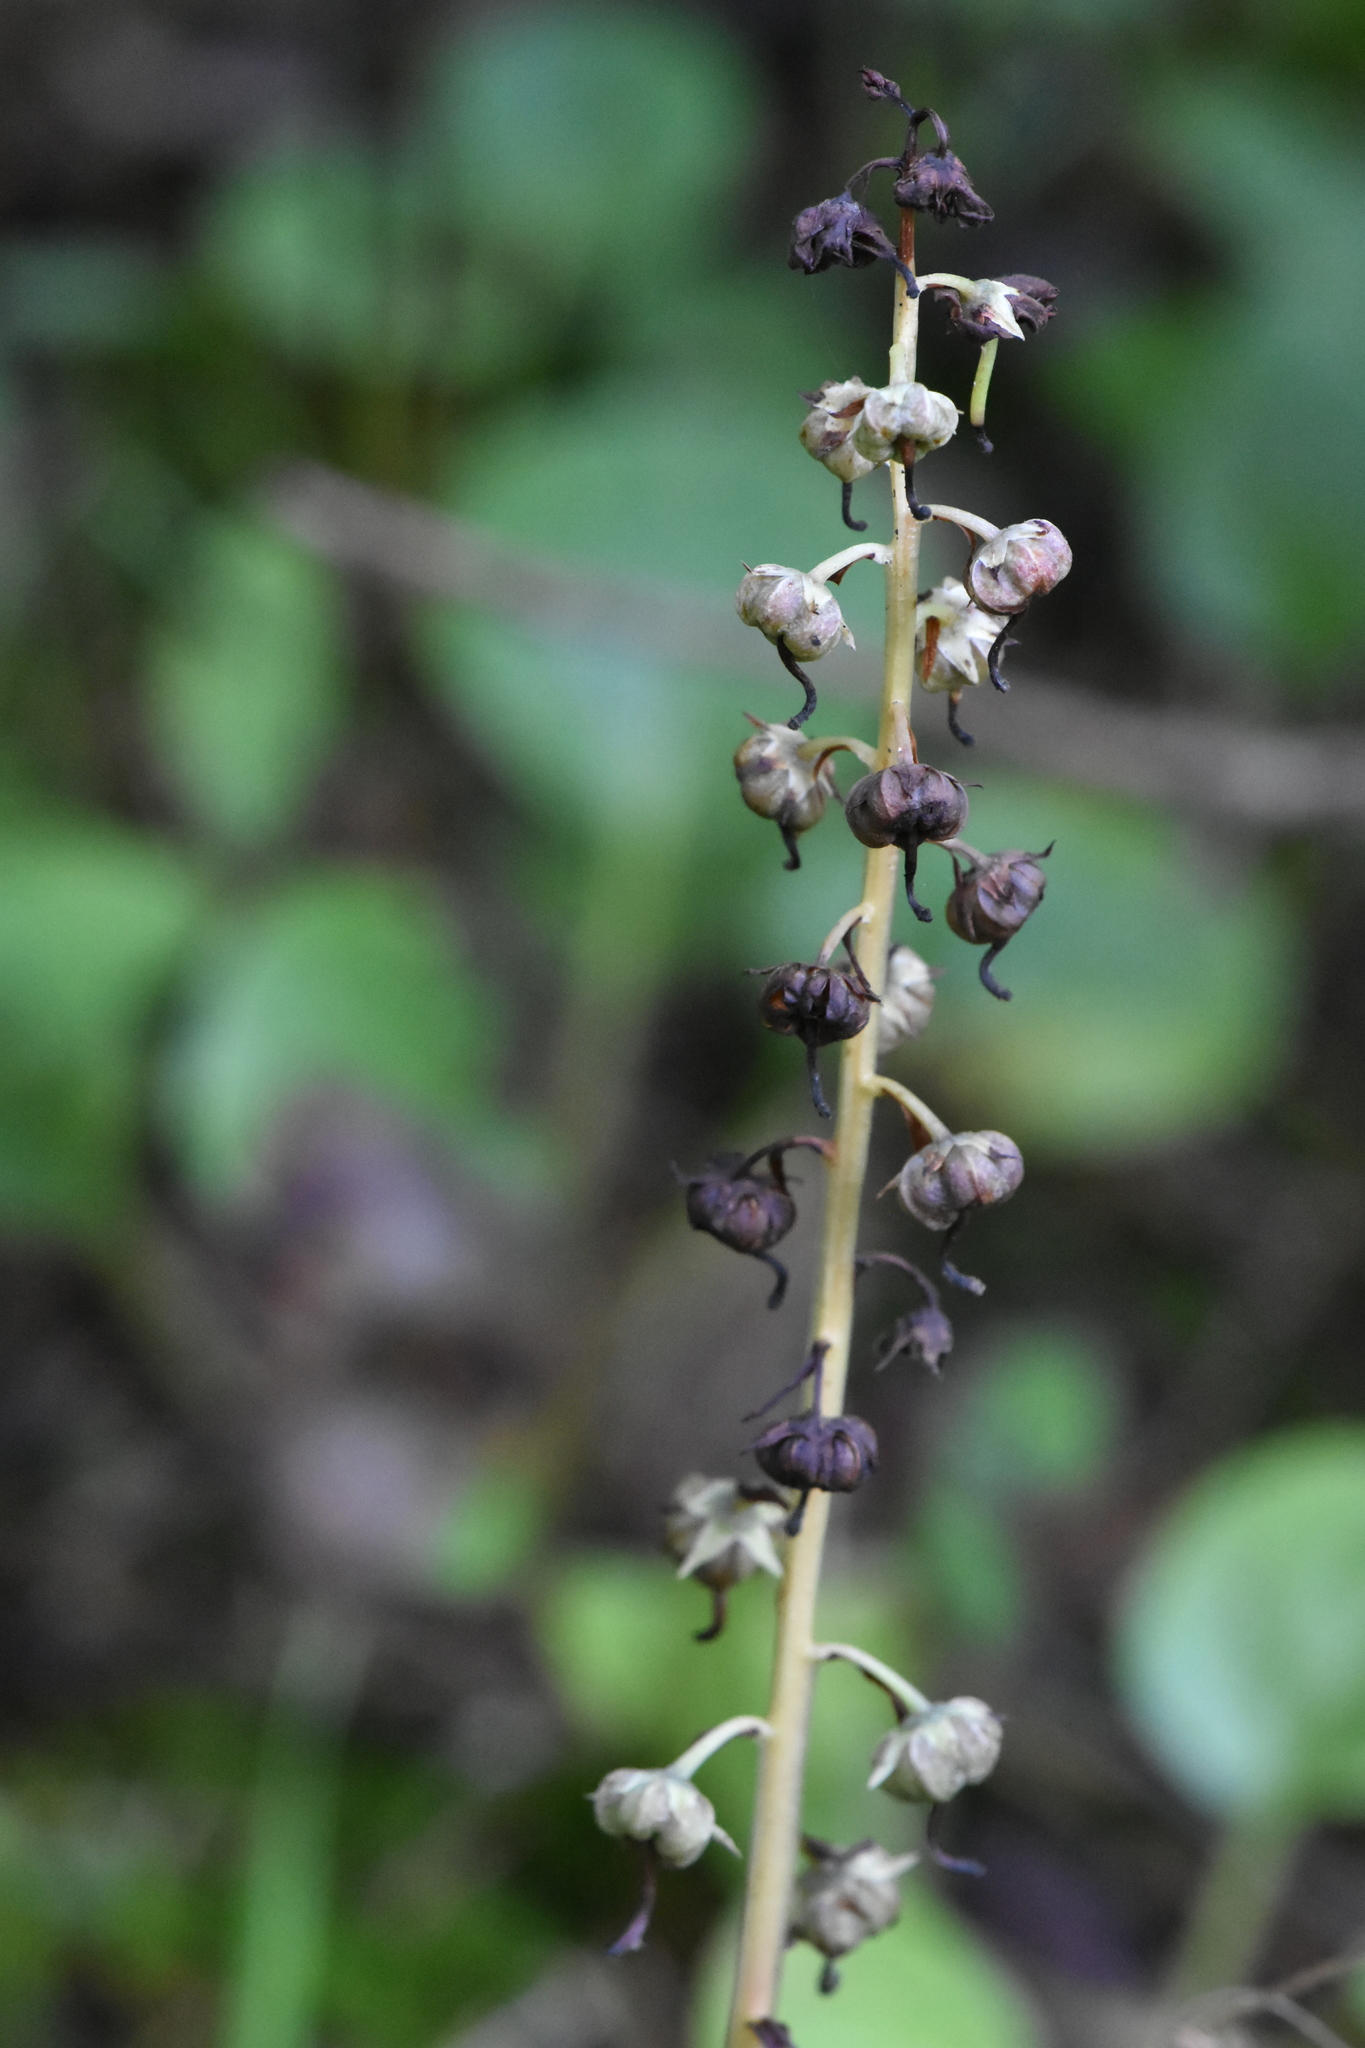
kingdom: Plantae
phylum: Tracheophyta
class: Magnoliopsida
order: Ericales
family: Ericaceae
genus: Pyrola
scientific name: Pyrola rotundifolia
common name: Round-leaved wintergreen
